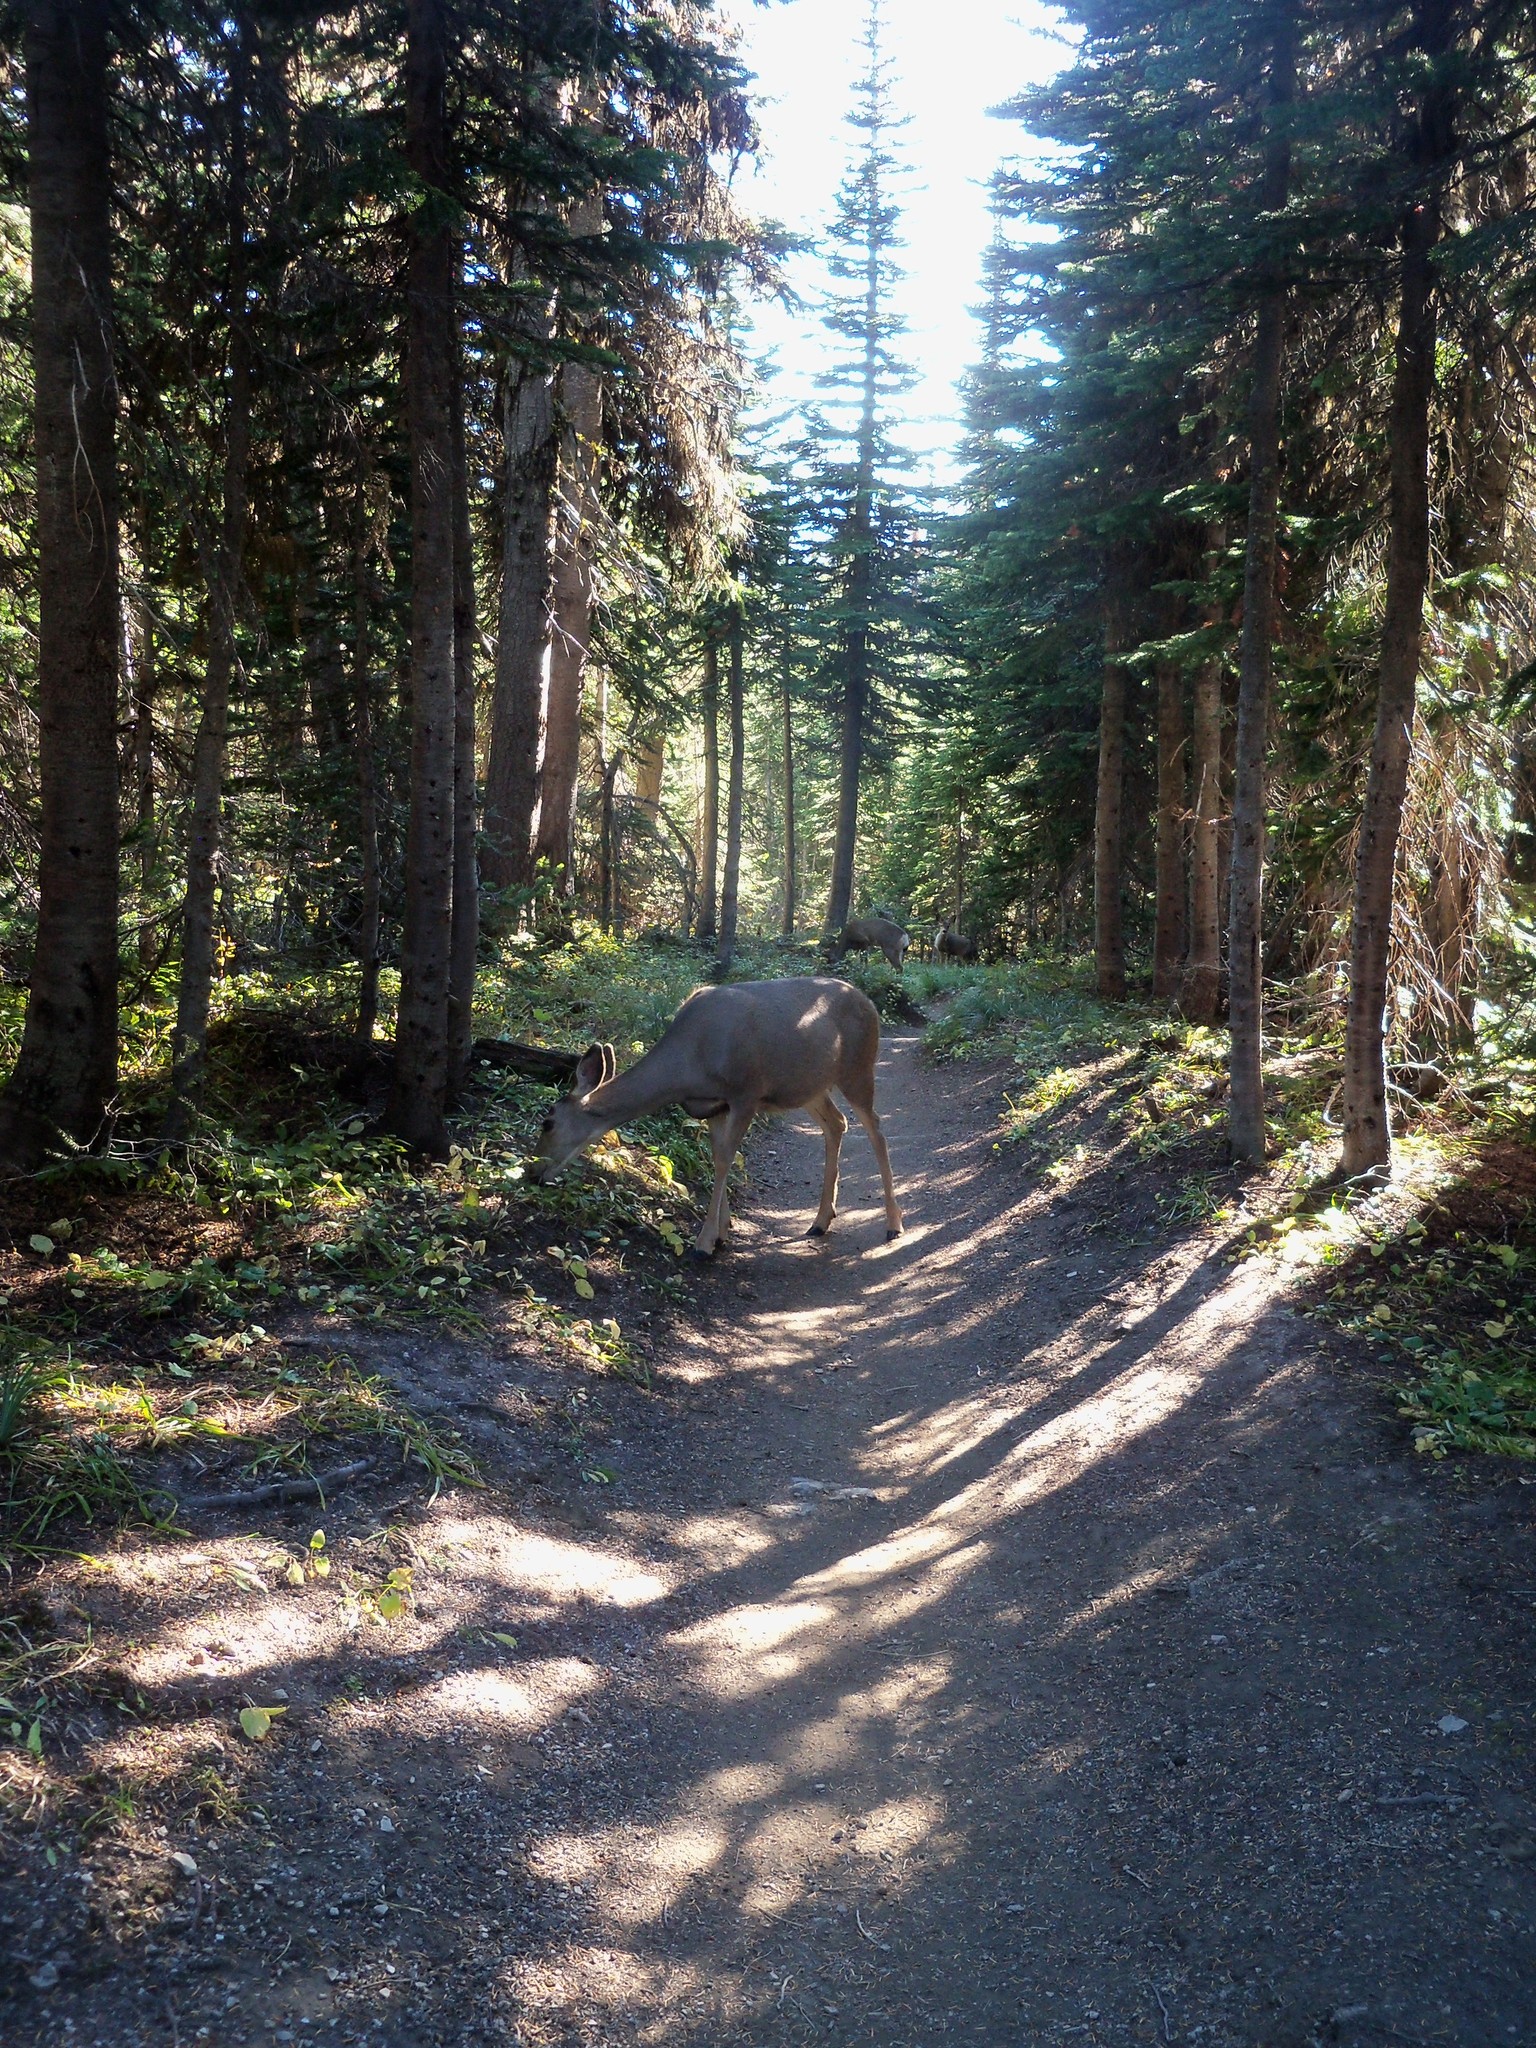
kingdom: Animalia
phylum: Chordata
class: Mammalia
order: Artiodactyla
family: Cervidae
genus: Odocoileus
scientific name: Odocoileus hemionus
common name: Mule deer
